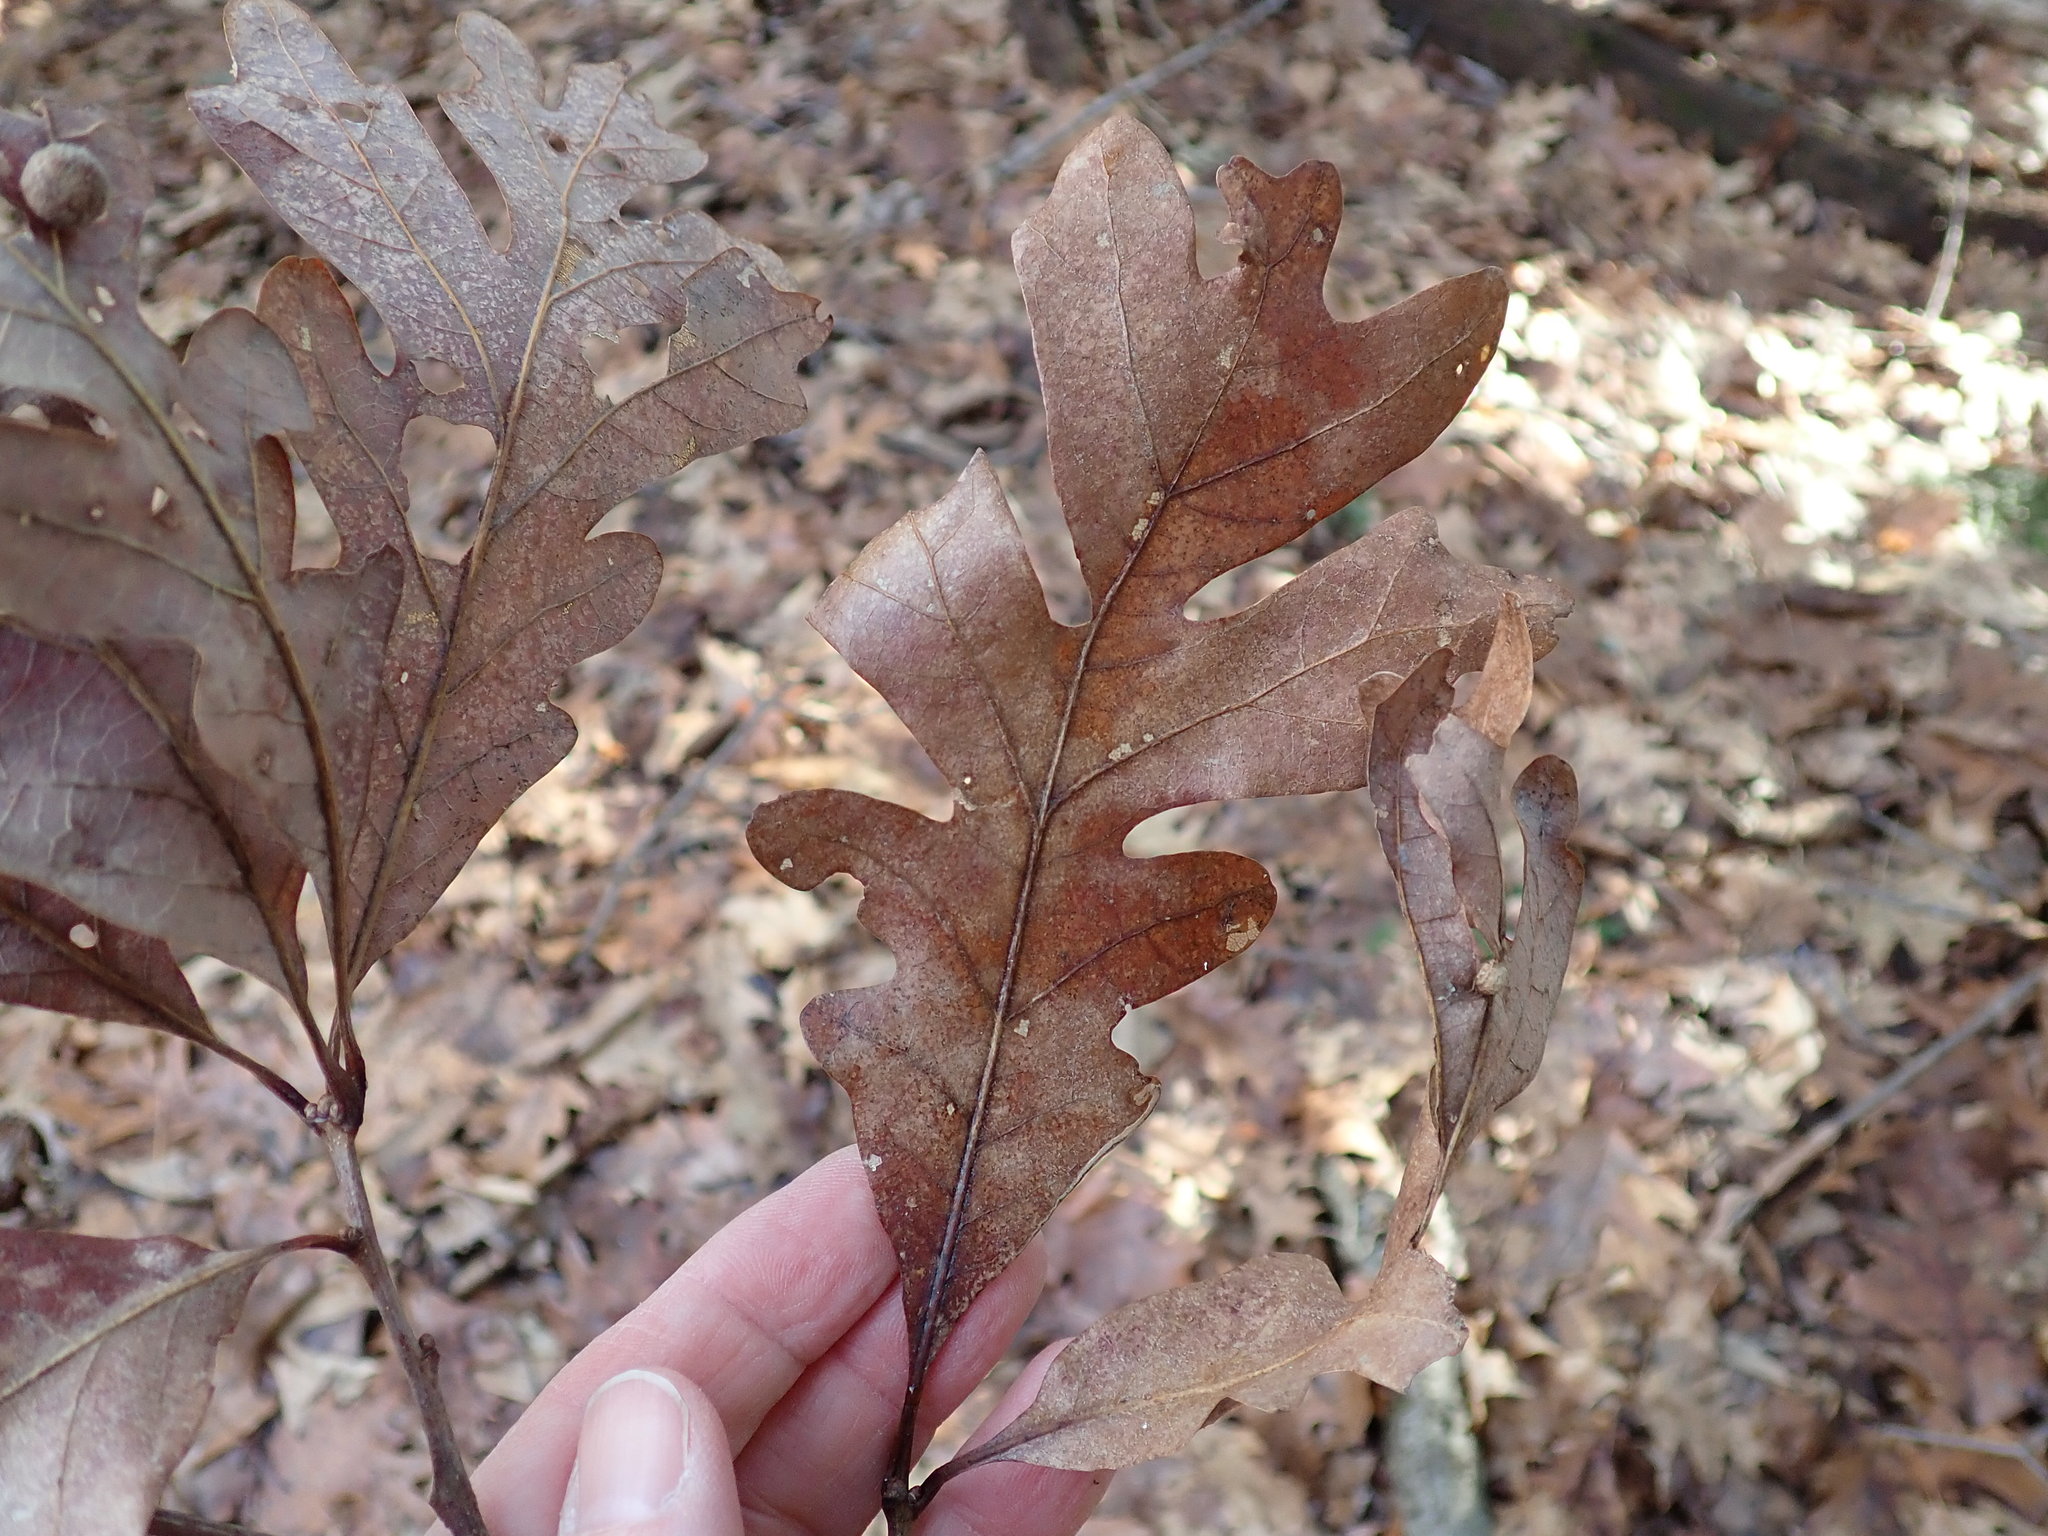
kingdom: Plantae
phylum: Tracheophyta
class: Magnoliopsida
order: Fagales
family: Fagaceae
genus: Quercus
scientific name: Quercus alba
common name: White oak
